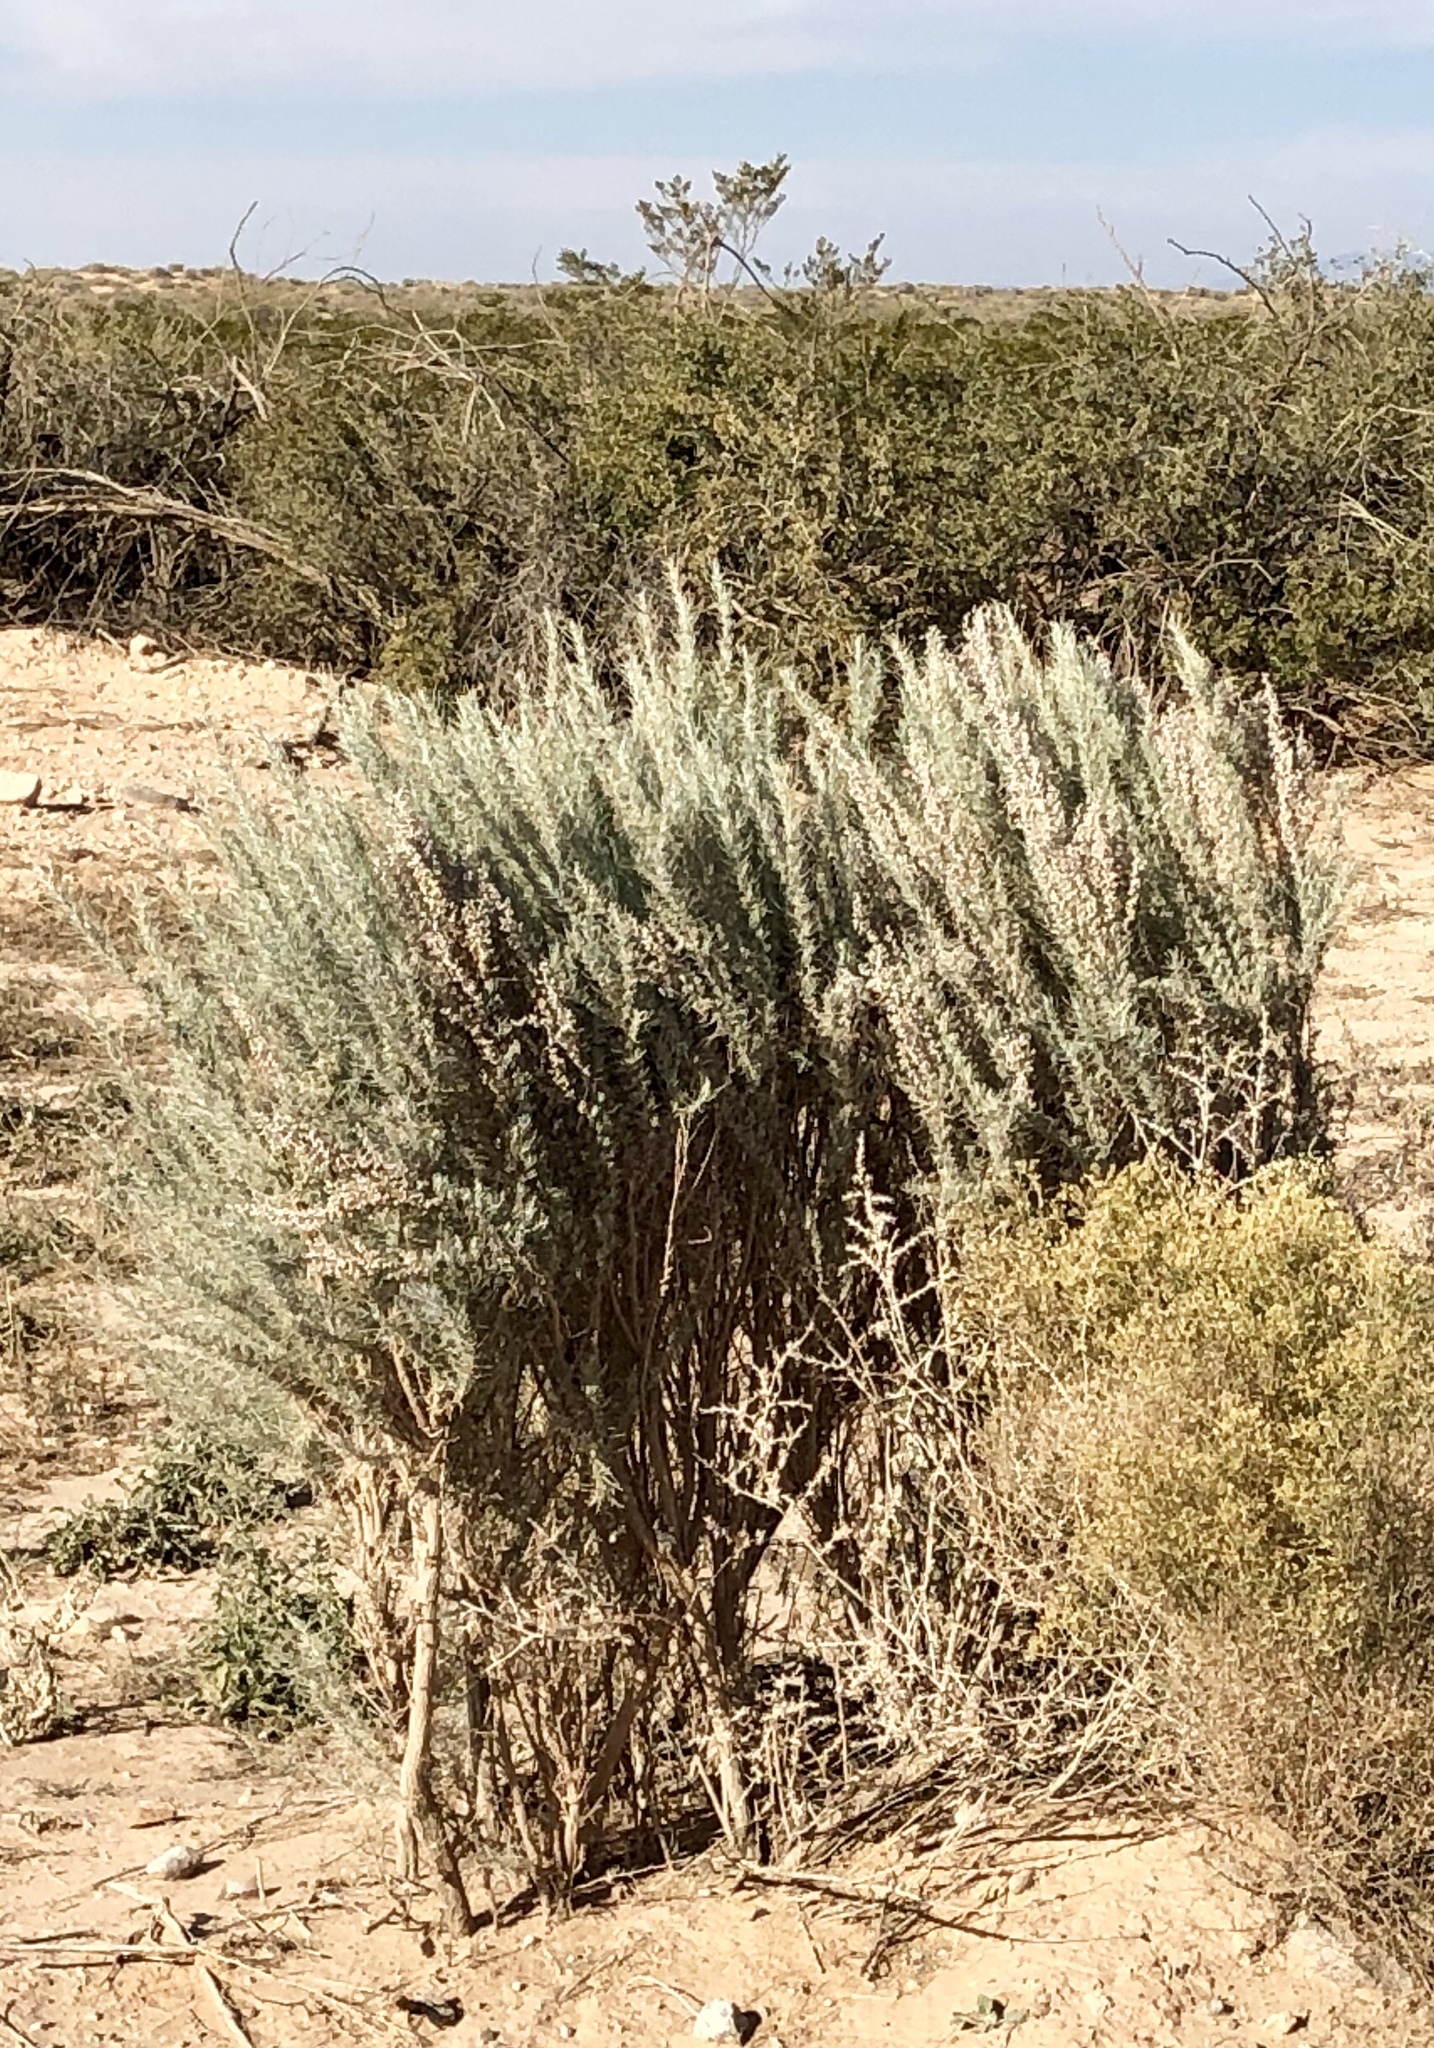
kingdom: Plantae
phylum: Tracheophyta
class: Magnoliopsida
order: Caryophyllales
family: Amaranthaceae
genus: Krascheninnikovia
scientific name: Krascheninnikovia lanata
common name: Winterfat
